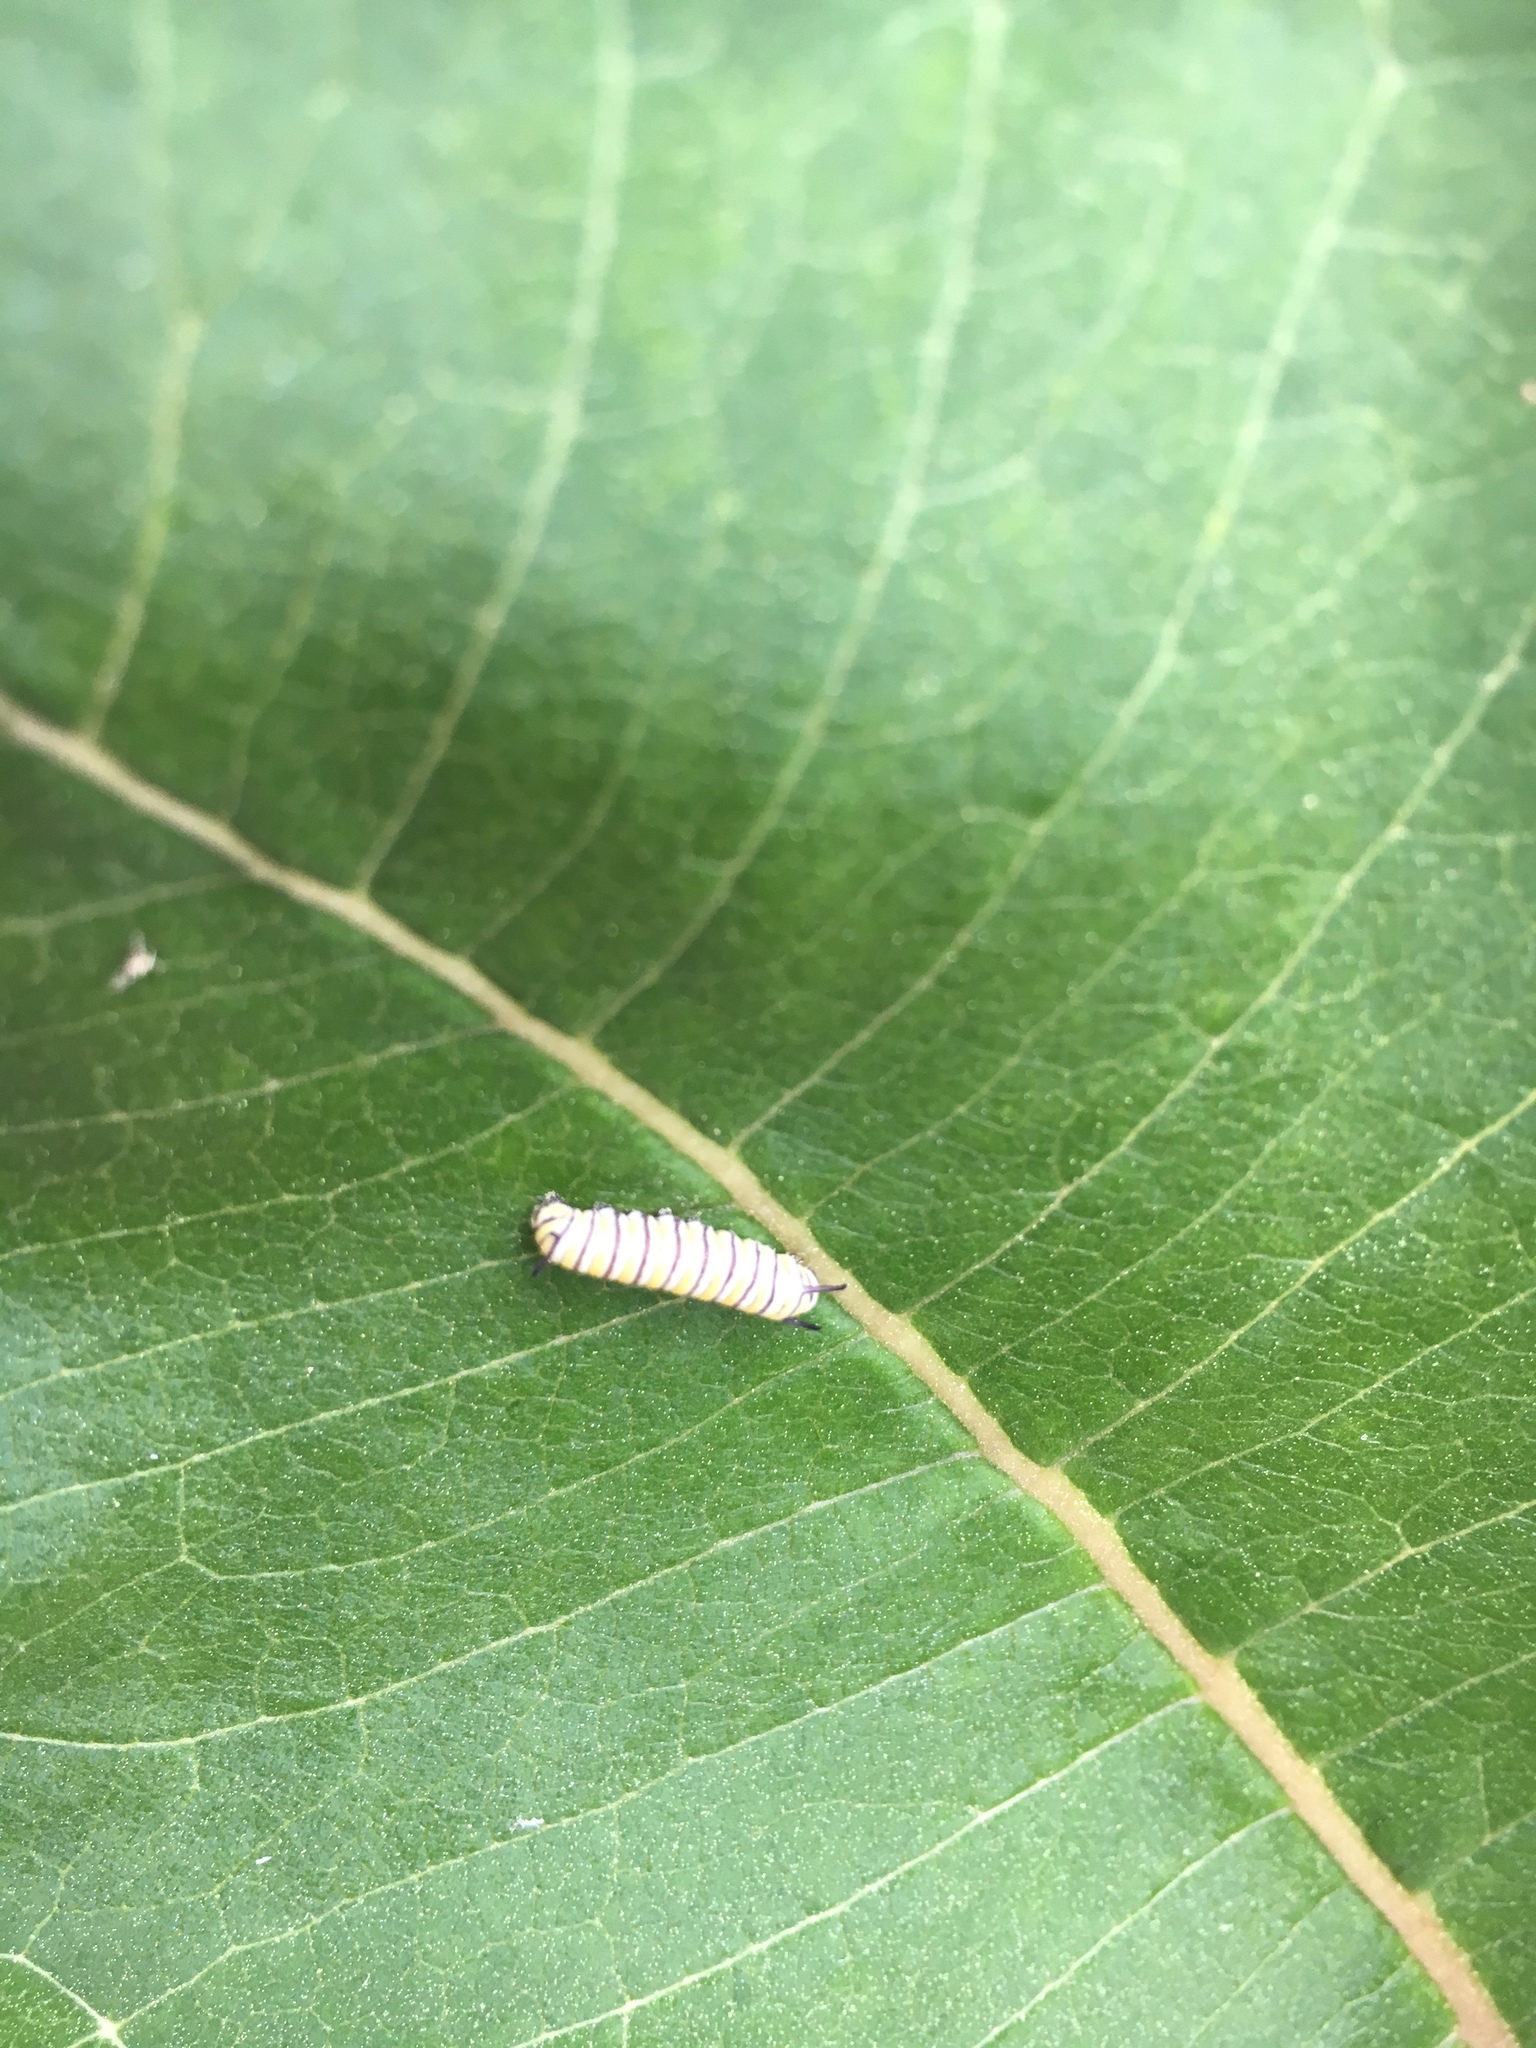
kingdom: Animalia
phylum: Arthropoda
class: Insecta
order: Lepidoptera
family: Nymphalidae
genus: Danaus
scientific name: Danaus plexippus
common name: Monarch
